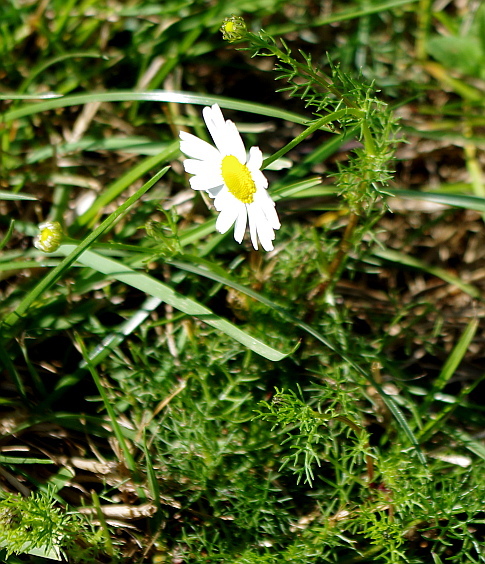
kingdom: Plantae
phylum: Tracheophyta
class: Magnoliopsida
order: Asterales
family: Asteraceae
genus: Tripleurospermum
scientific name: Tripleurospermum inodorum
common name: Scentless mayweed
